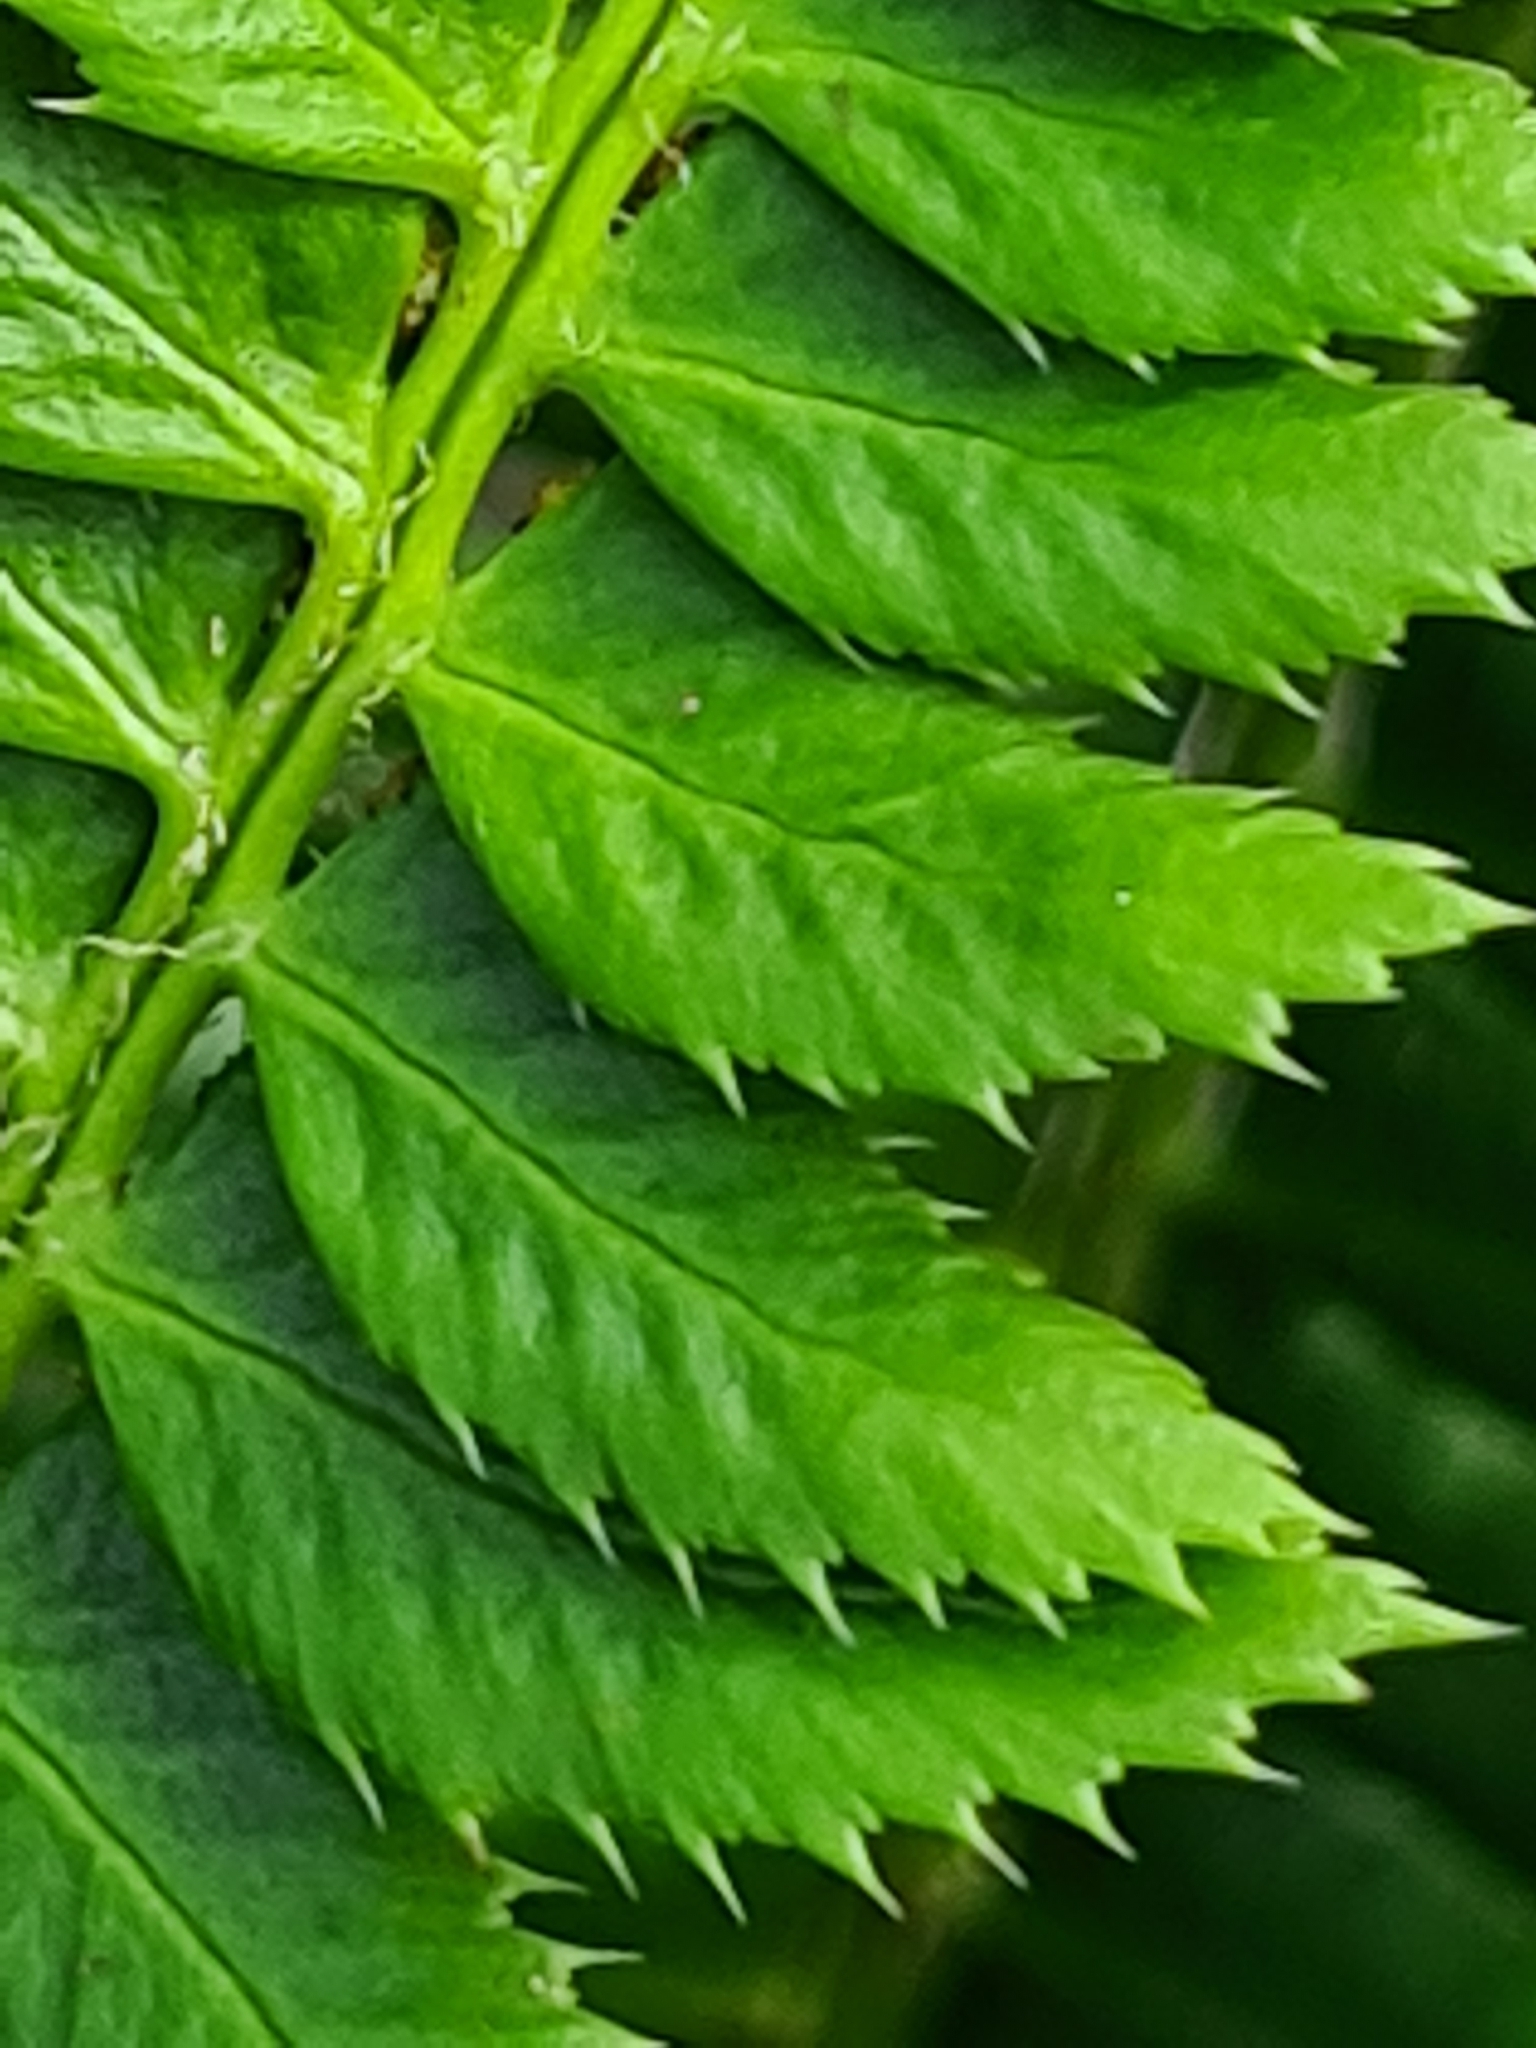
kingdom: Plantae
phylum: Tracheophyta
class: Polypodiopsida
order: Polypodiales
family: Dryopteridaceae
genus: Polystichum
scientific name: Polystichum lonchitis
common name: Holly fern
